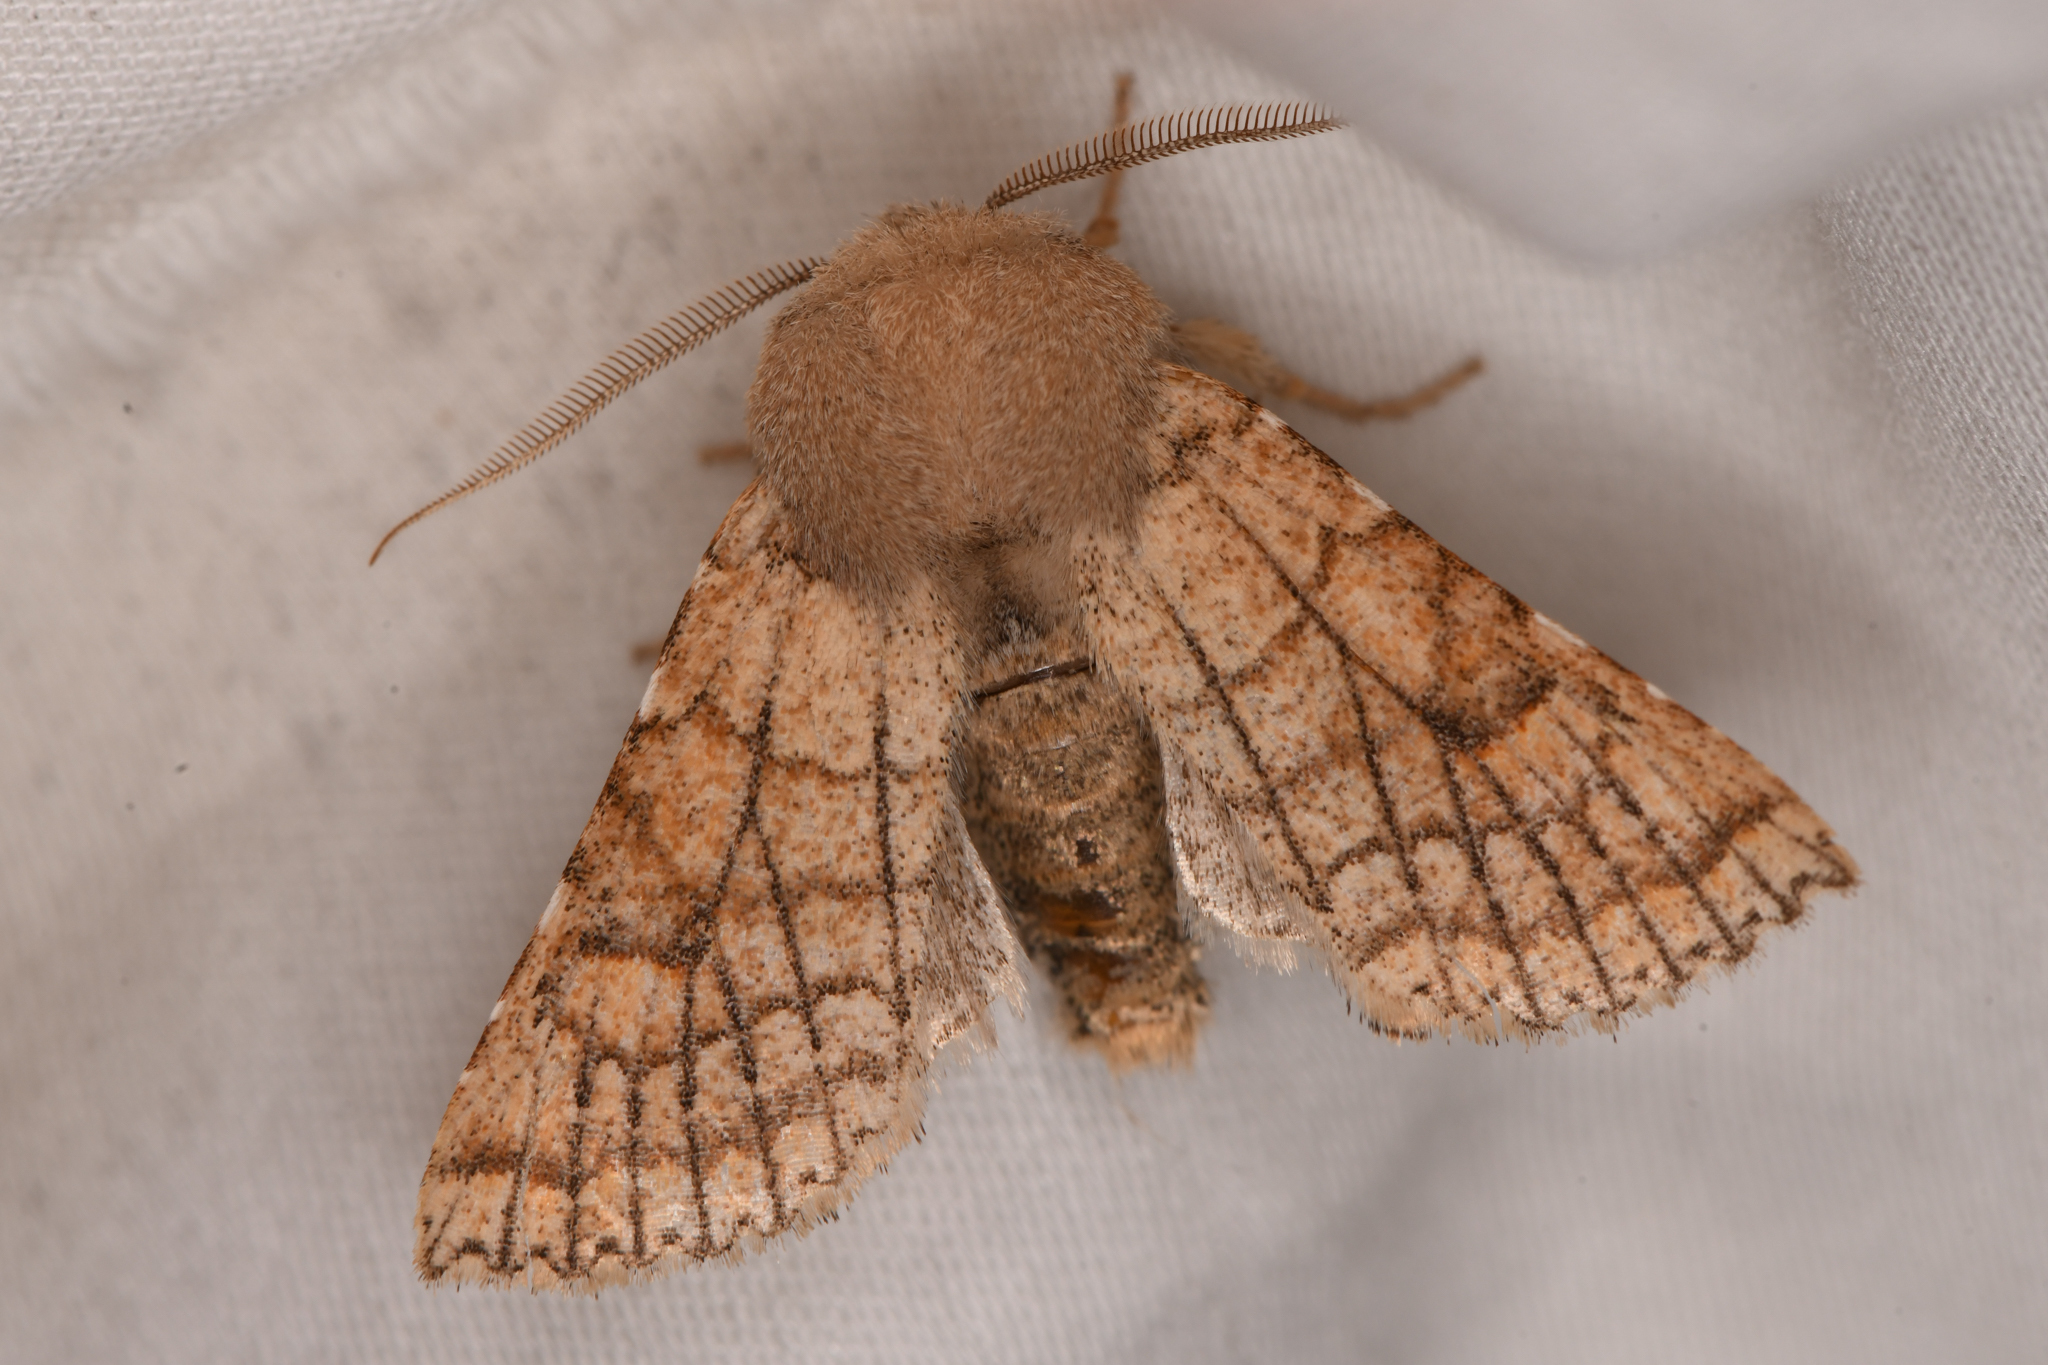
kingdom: Animalia
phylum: Arthropoda
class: Insecta
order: Lepidoptera
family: Noctuidae
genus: Orthosia
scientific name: Orthosia ferrigera
